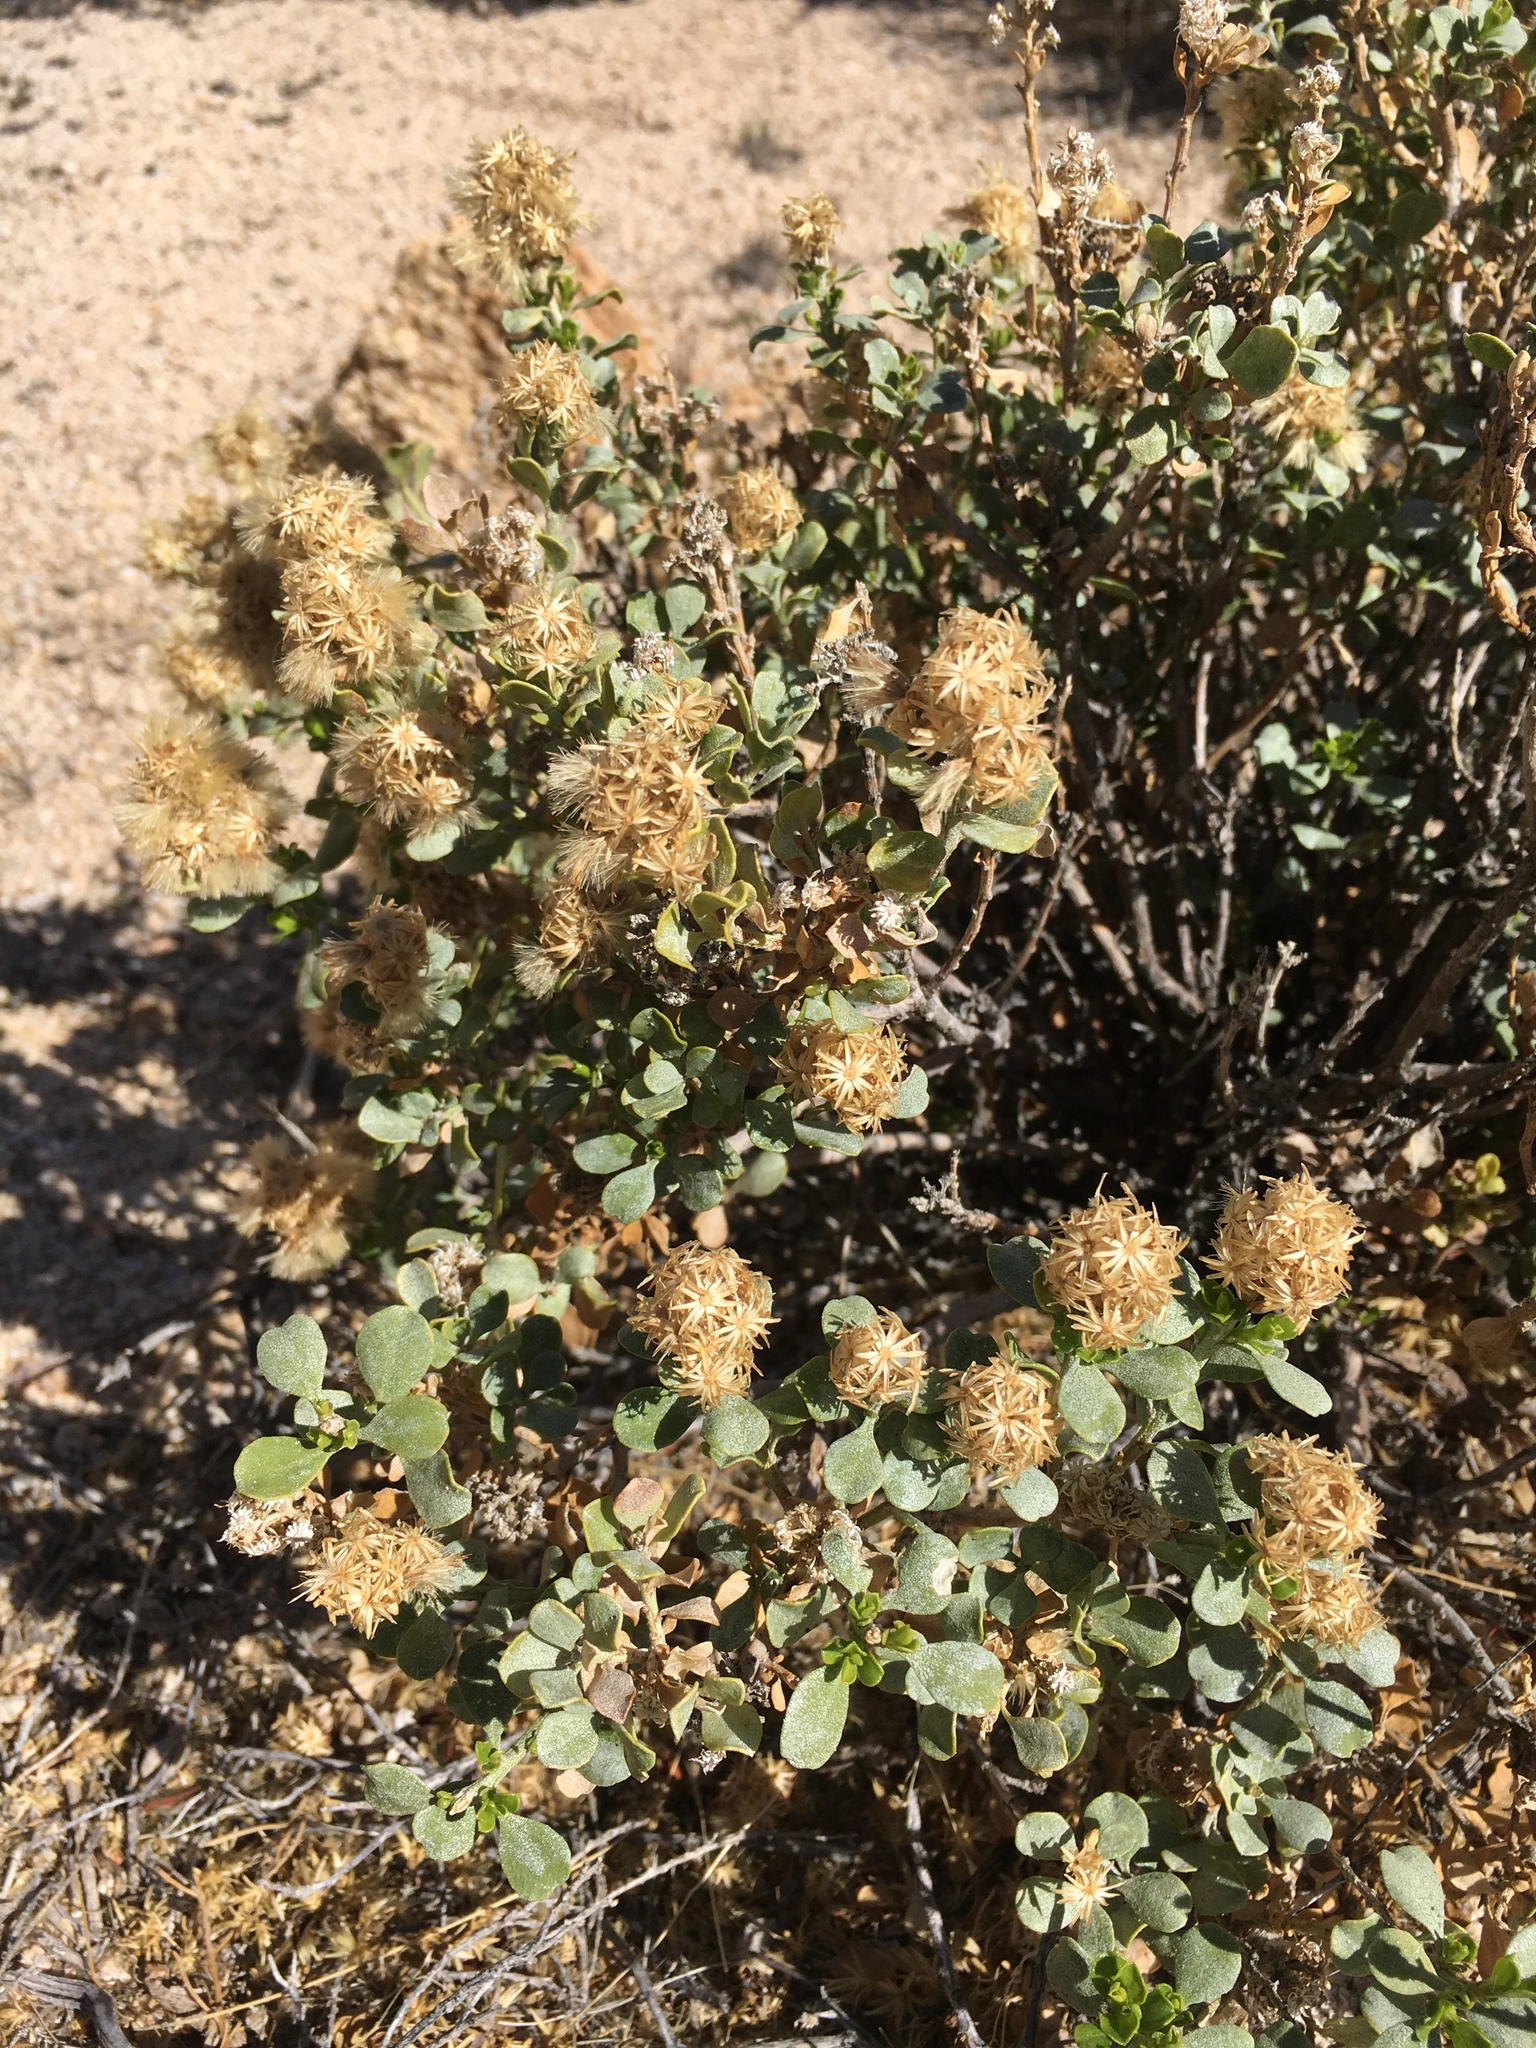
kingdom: Plantae
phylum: Tracheophyta
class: Magnoliopsida
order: Asterales
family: Asteraceae
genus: Ericameria
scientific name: Ericameria cuneata
